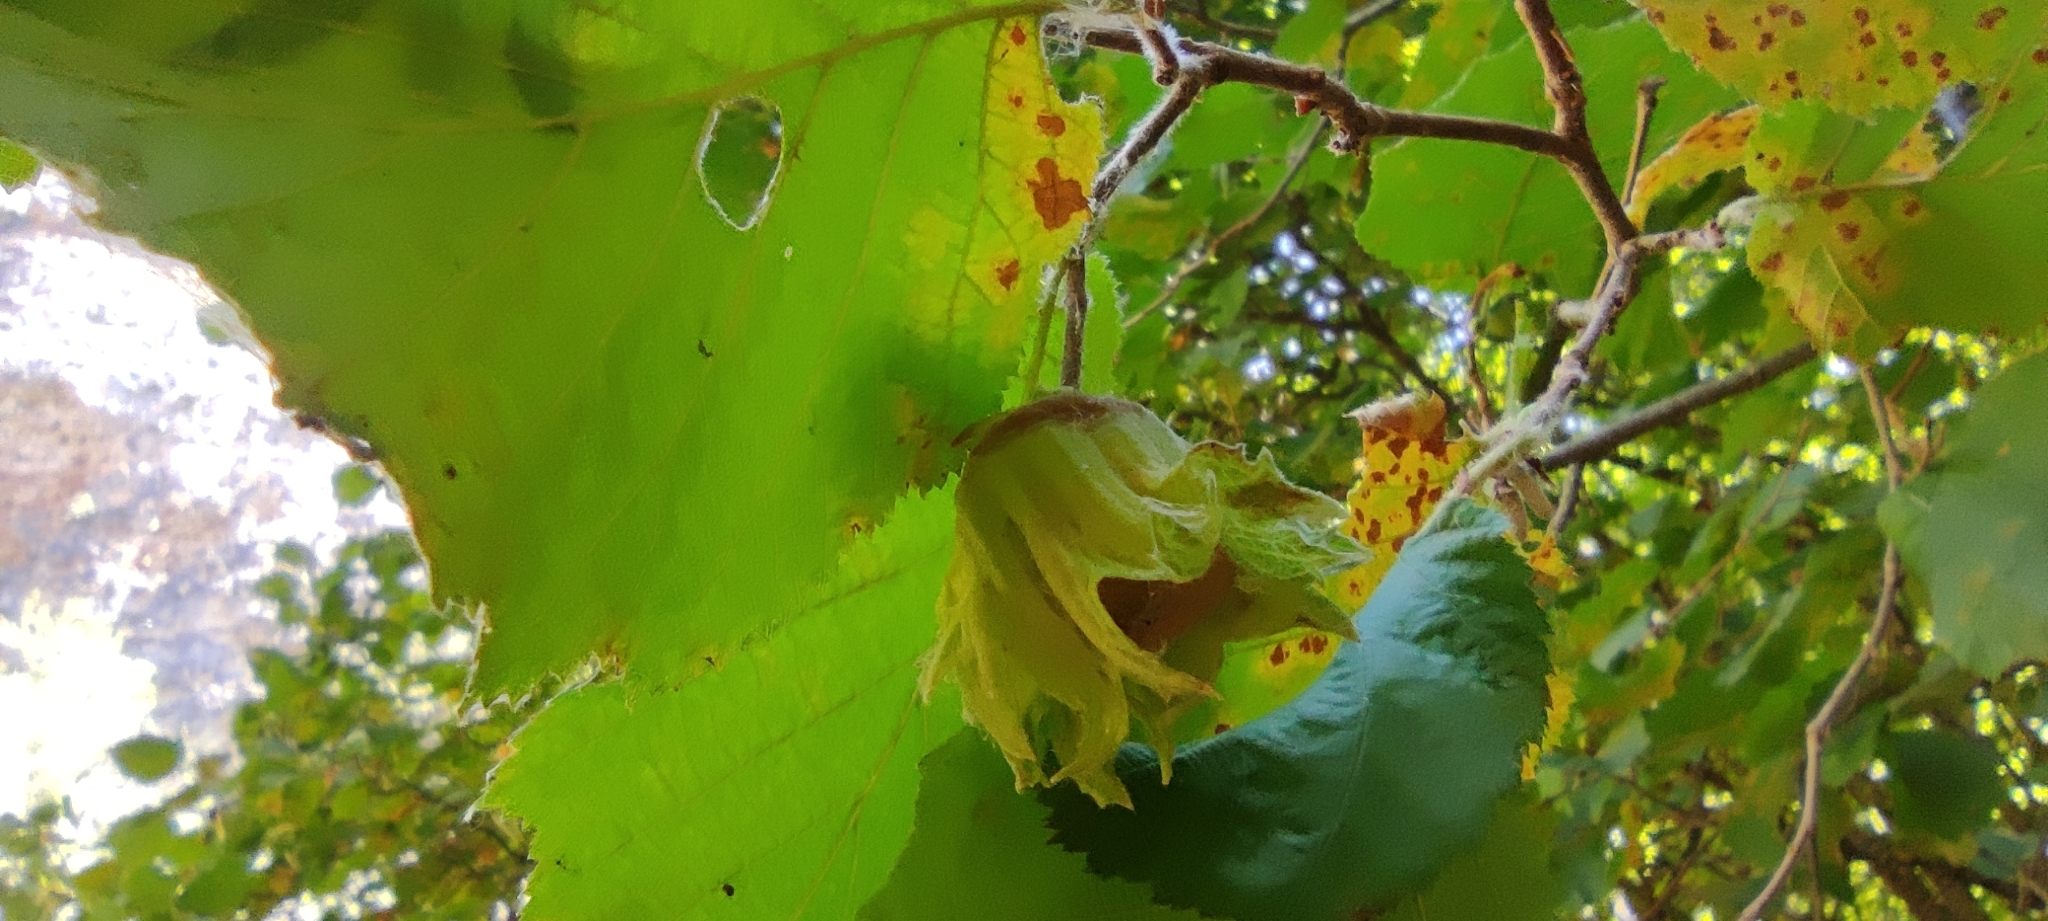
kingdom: Plantae
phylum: Tracheophyta
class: Magnoliopsida
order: Fagales
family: Betulaceae
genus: Corylus
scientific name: Corylus avellana
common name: European hazel
